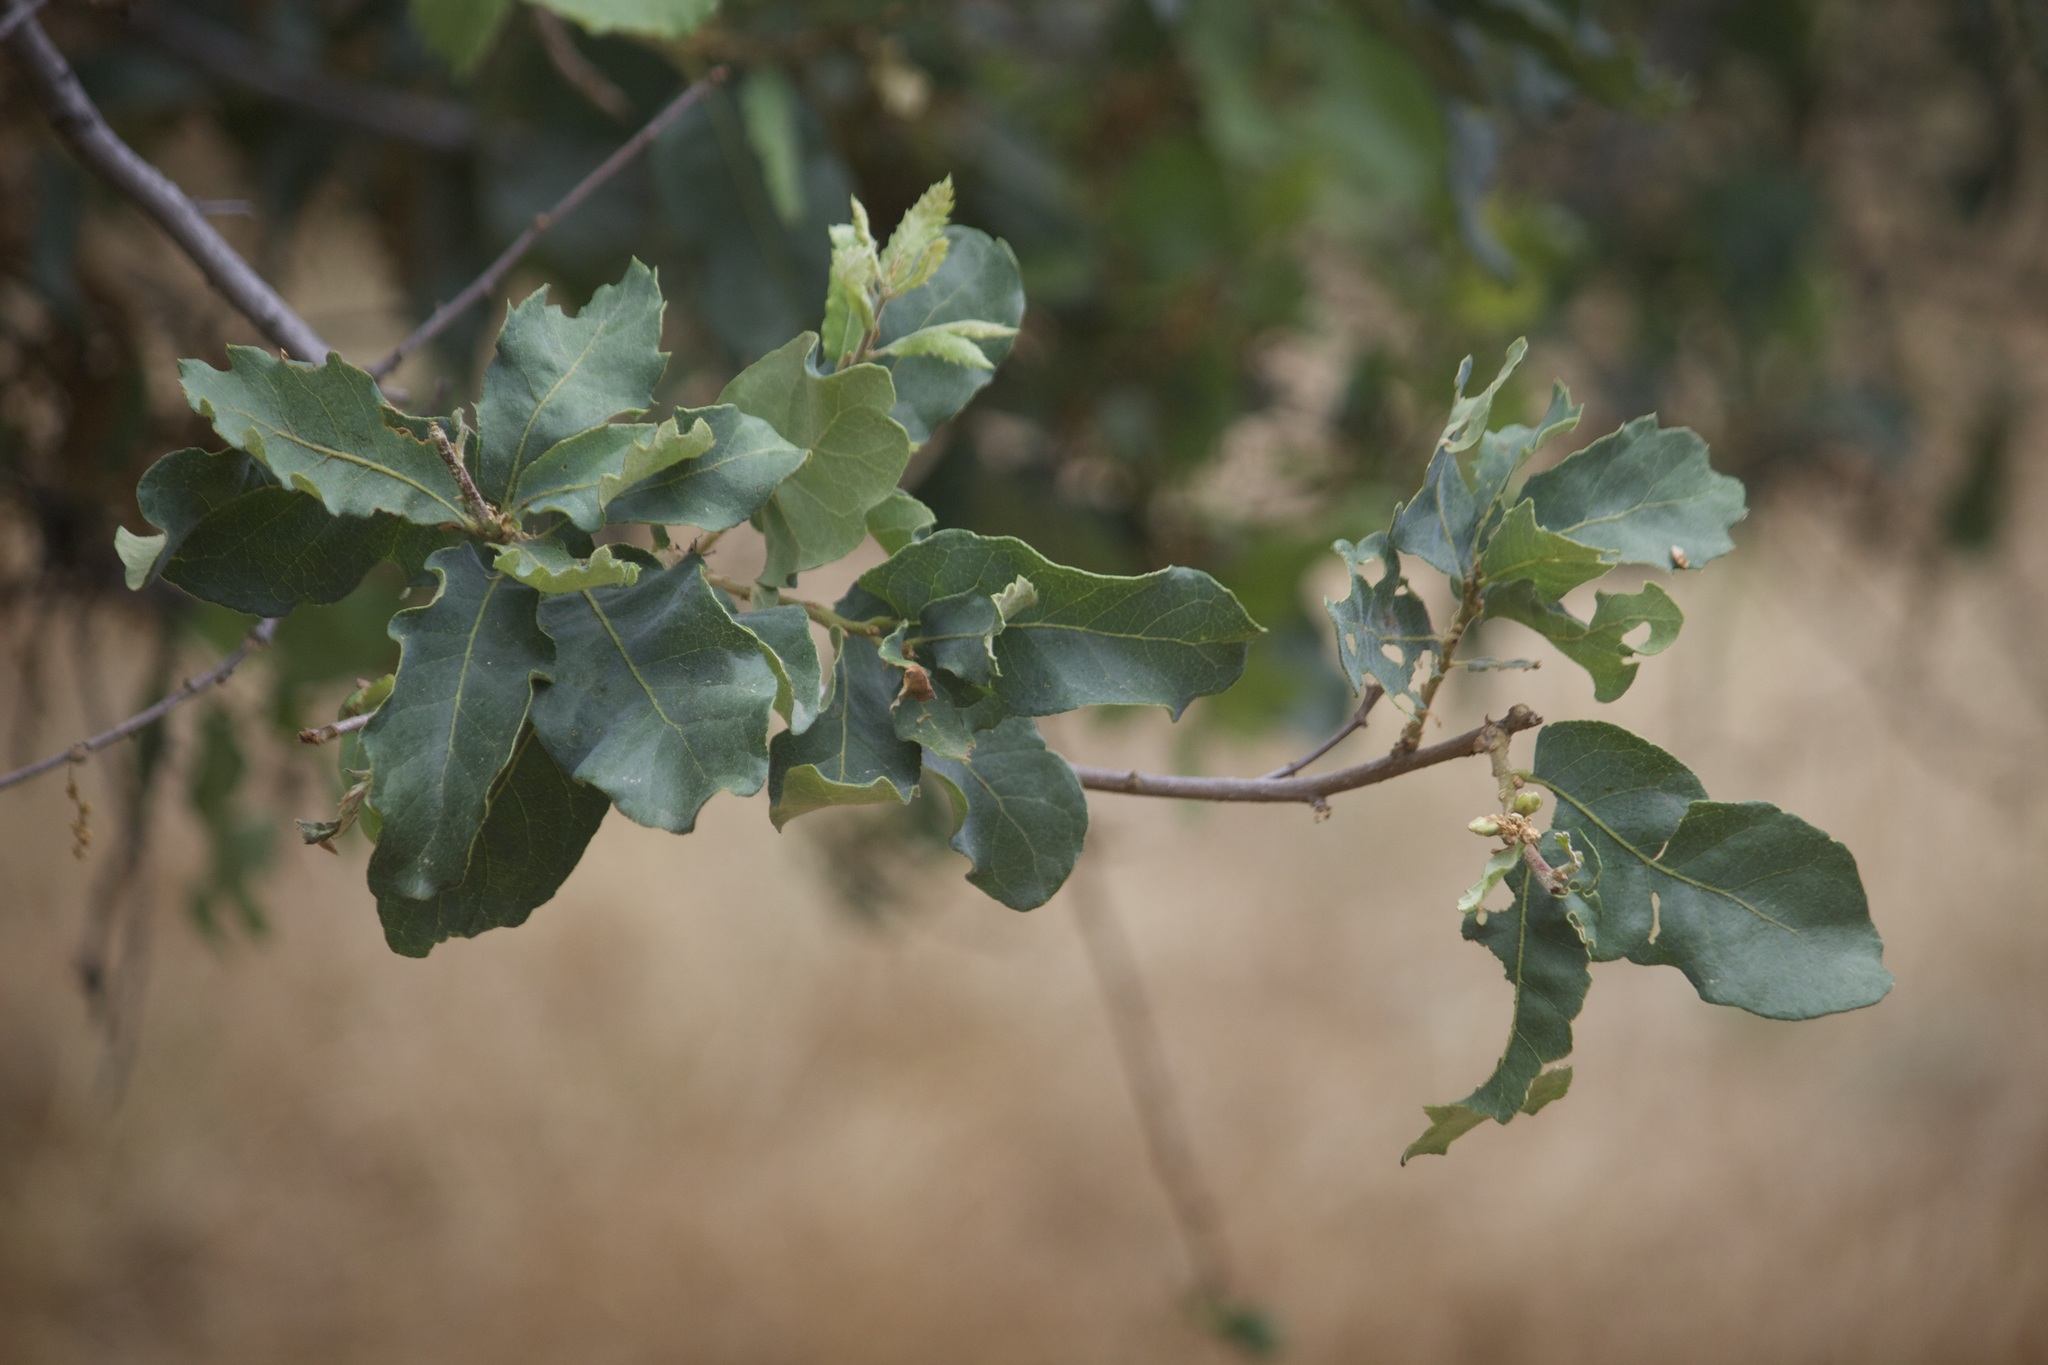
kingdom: Plantae
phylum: Tracheophyta
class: Magnoliopsida
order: Fagales
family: Fagaceae
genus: Quercus
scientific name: Quercus
